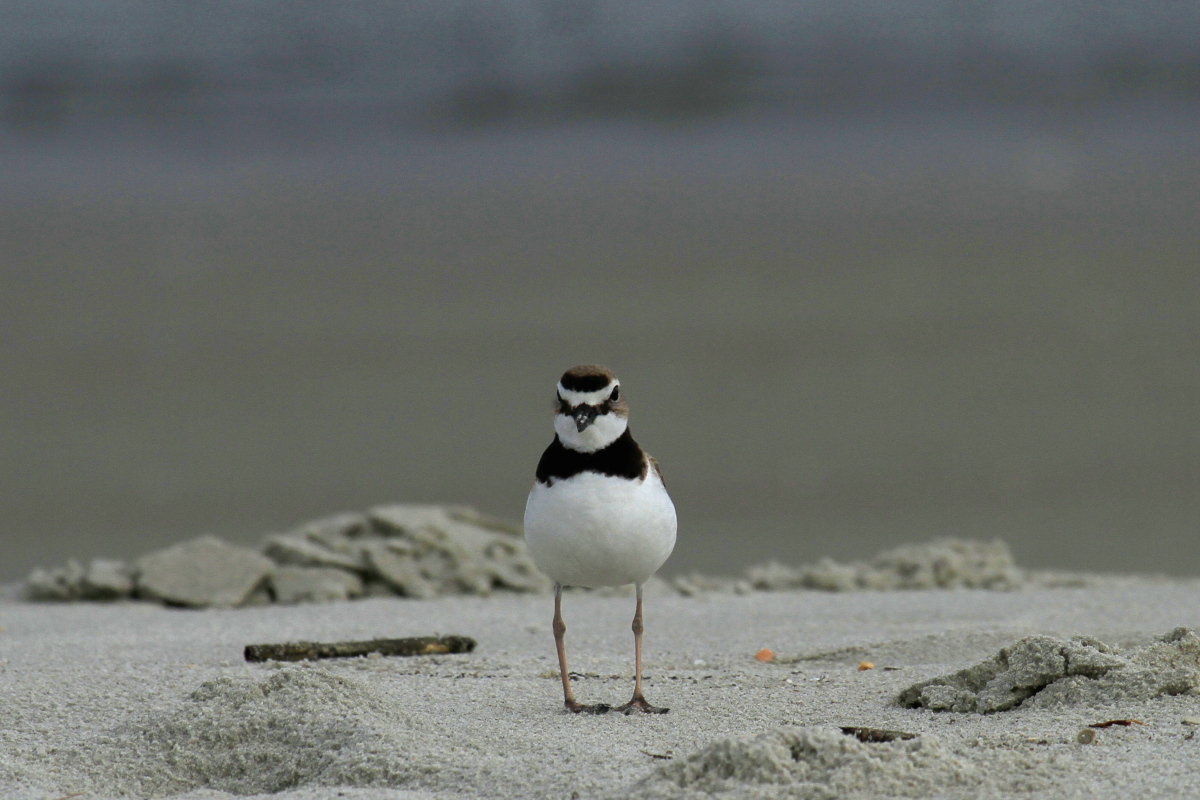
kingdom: Animalia
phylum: Chordata
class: Aves
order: Charadriiformes
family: Charadriidae
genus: Anarhynchus
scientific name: Anarhynchus
